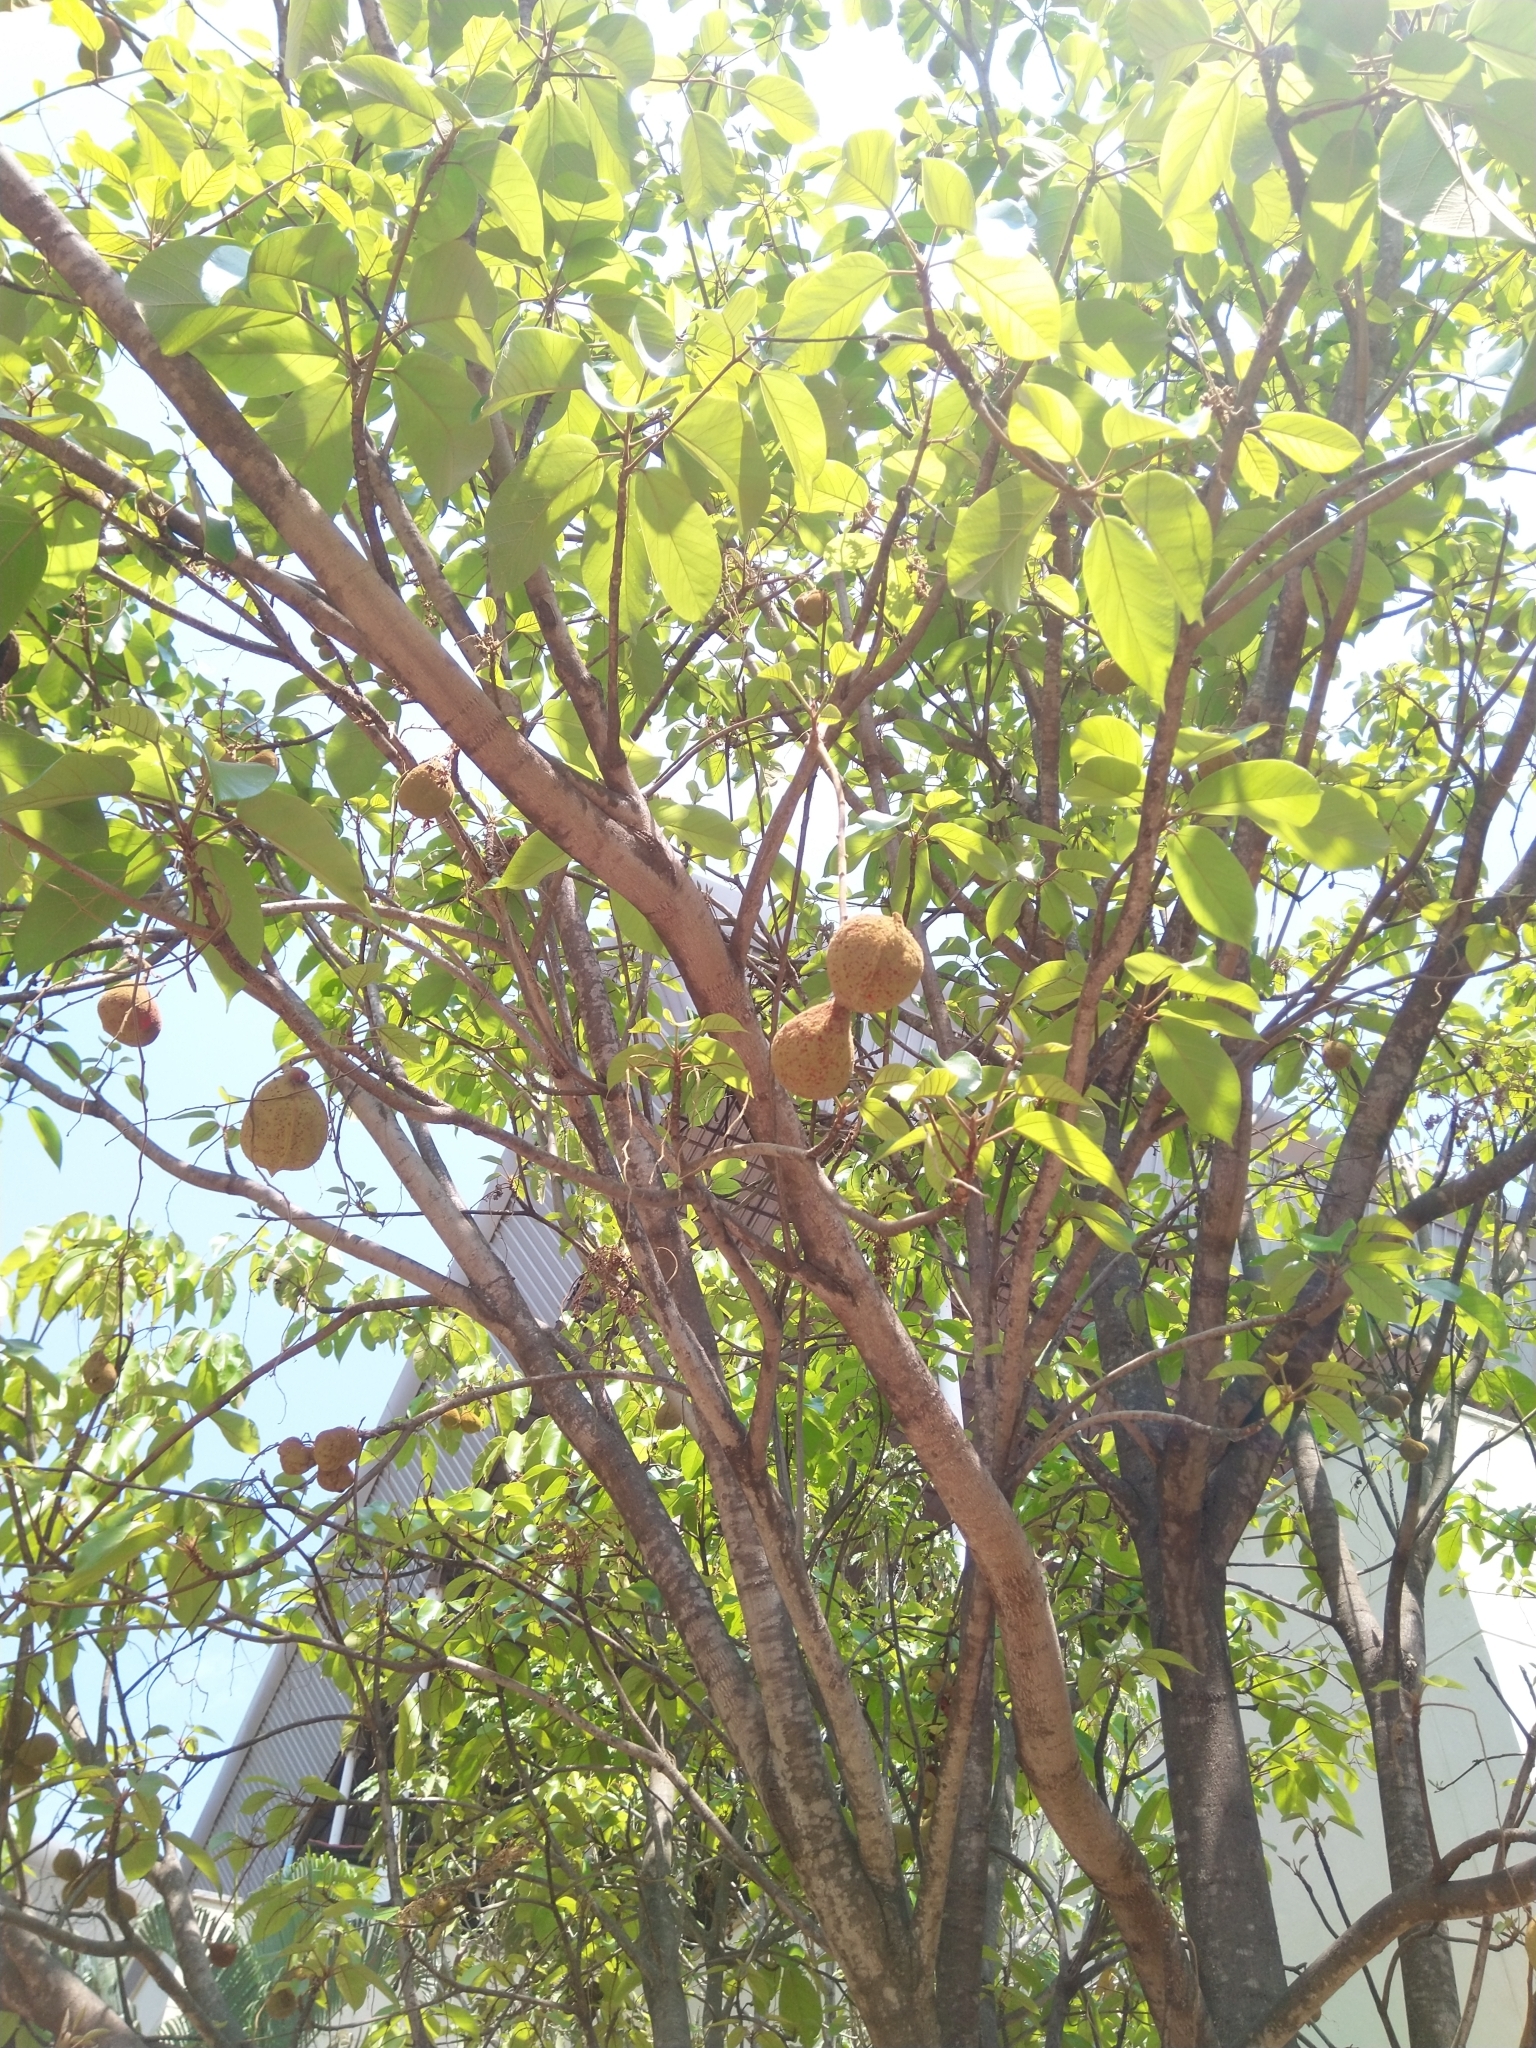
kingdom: Plantae
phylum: Tracheophyta
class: Magnoliopsida
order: Malvales
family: Malvaceae
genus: Sterculia
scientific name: Sterculia guttata
